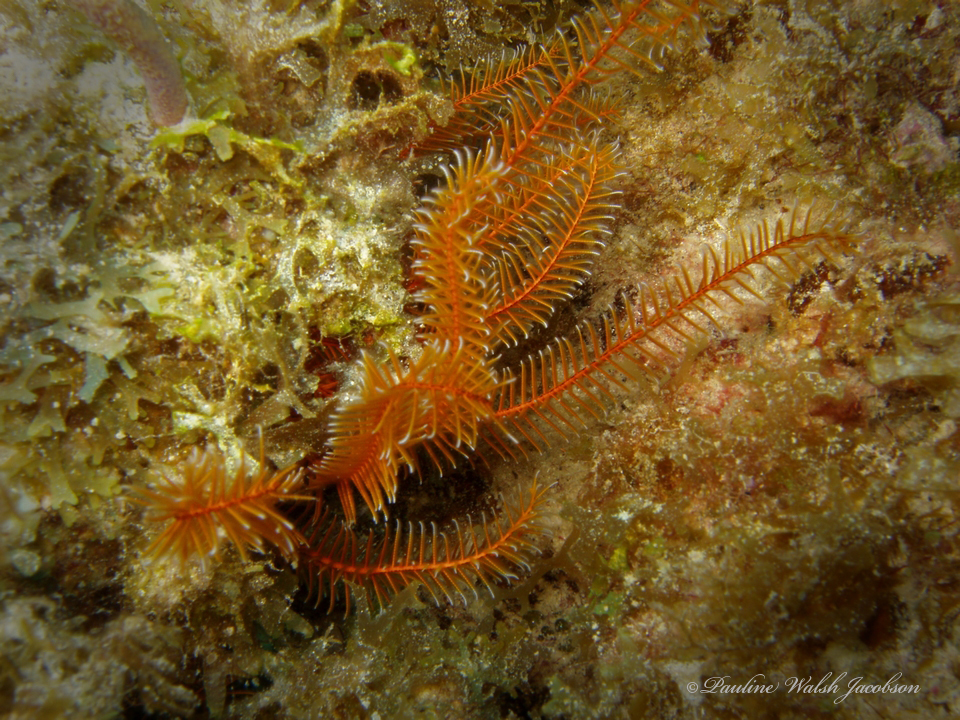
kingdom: Animalia
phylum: Echinodermata
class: Crinoidea
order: Comatulida
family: Comatulidae
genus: Davidaster
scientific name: Davidaster rubiginosus
